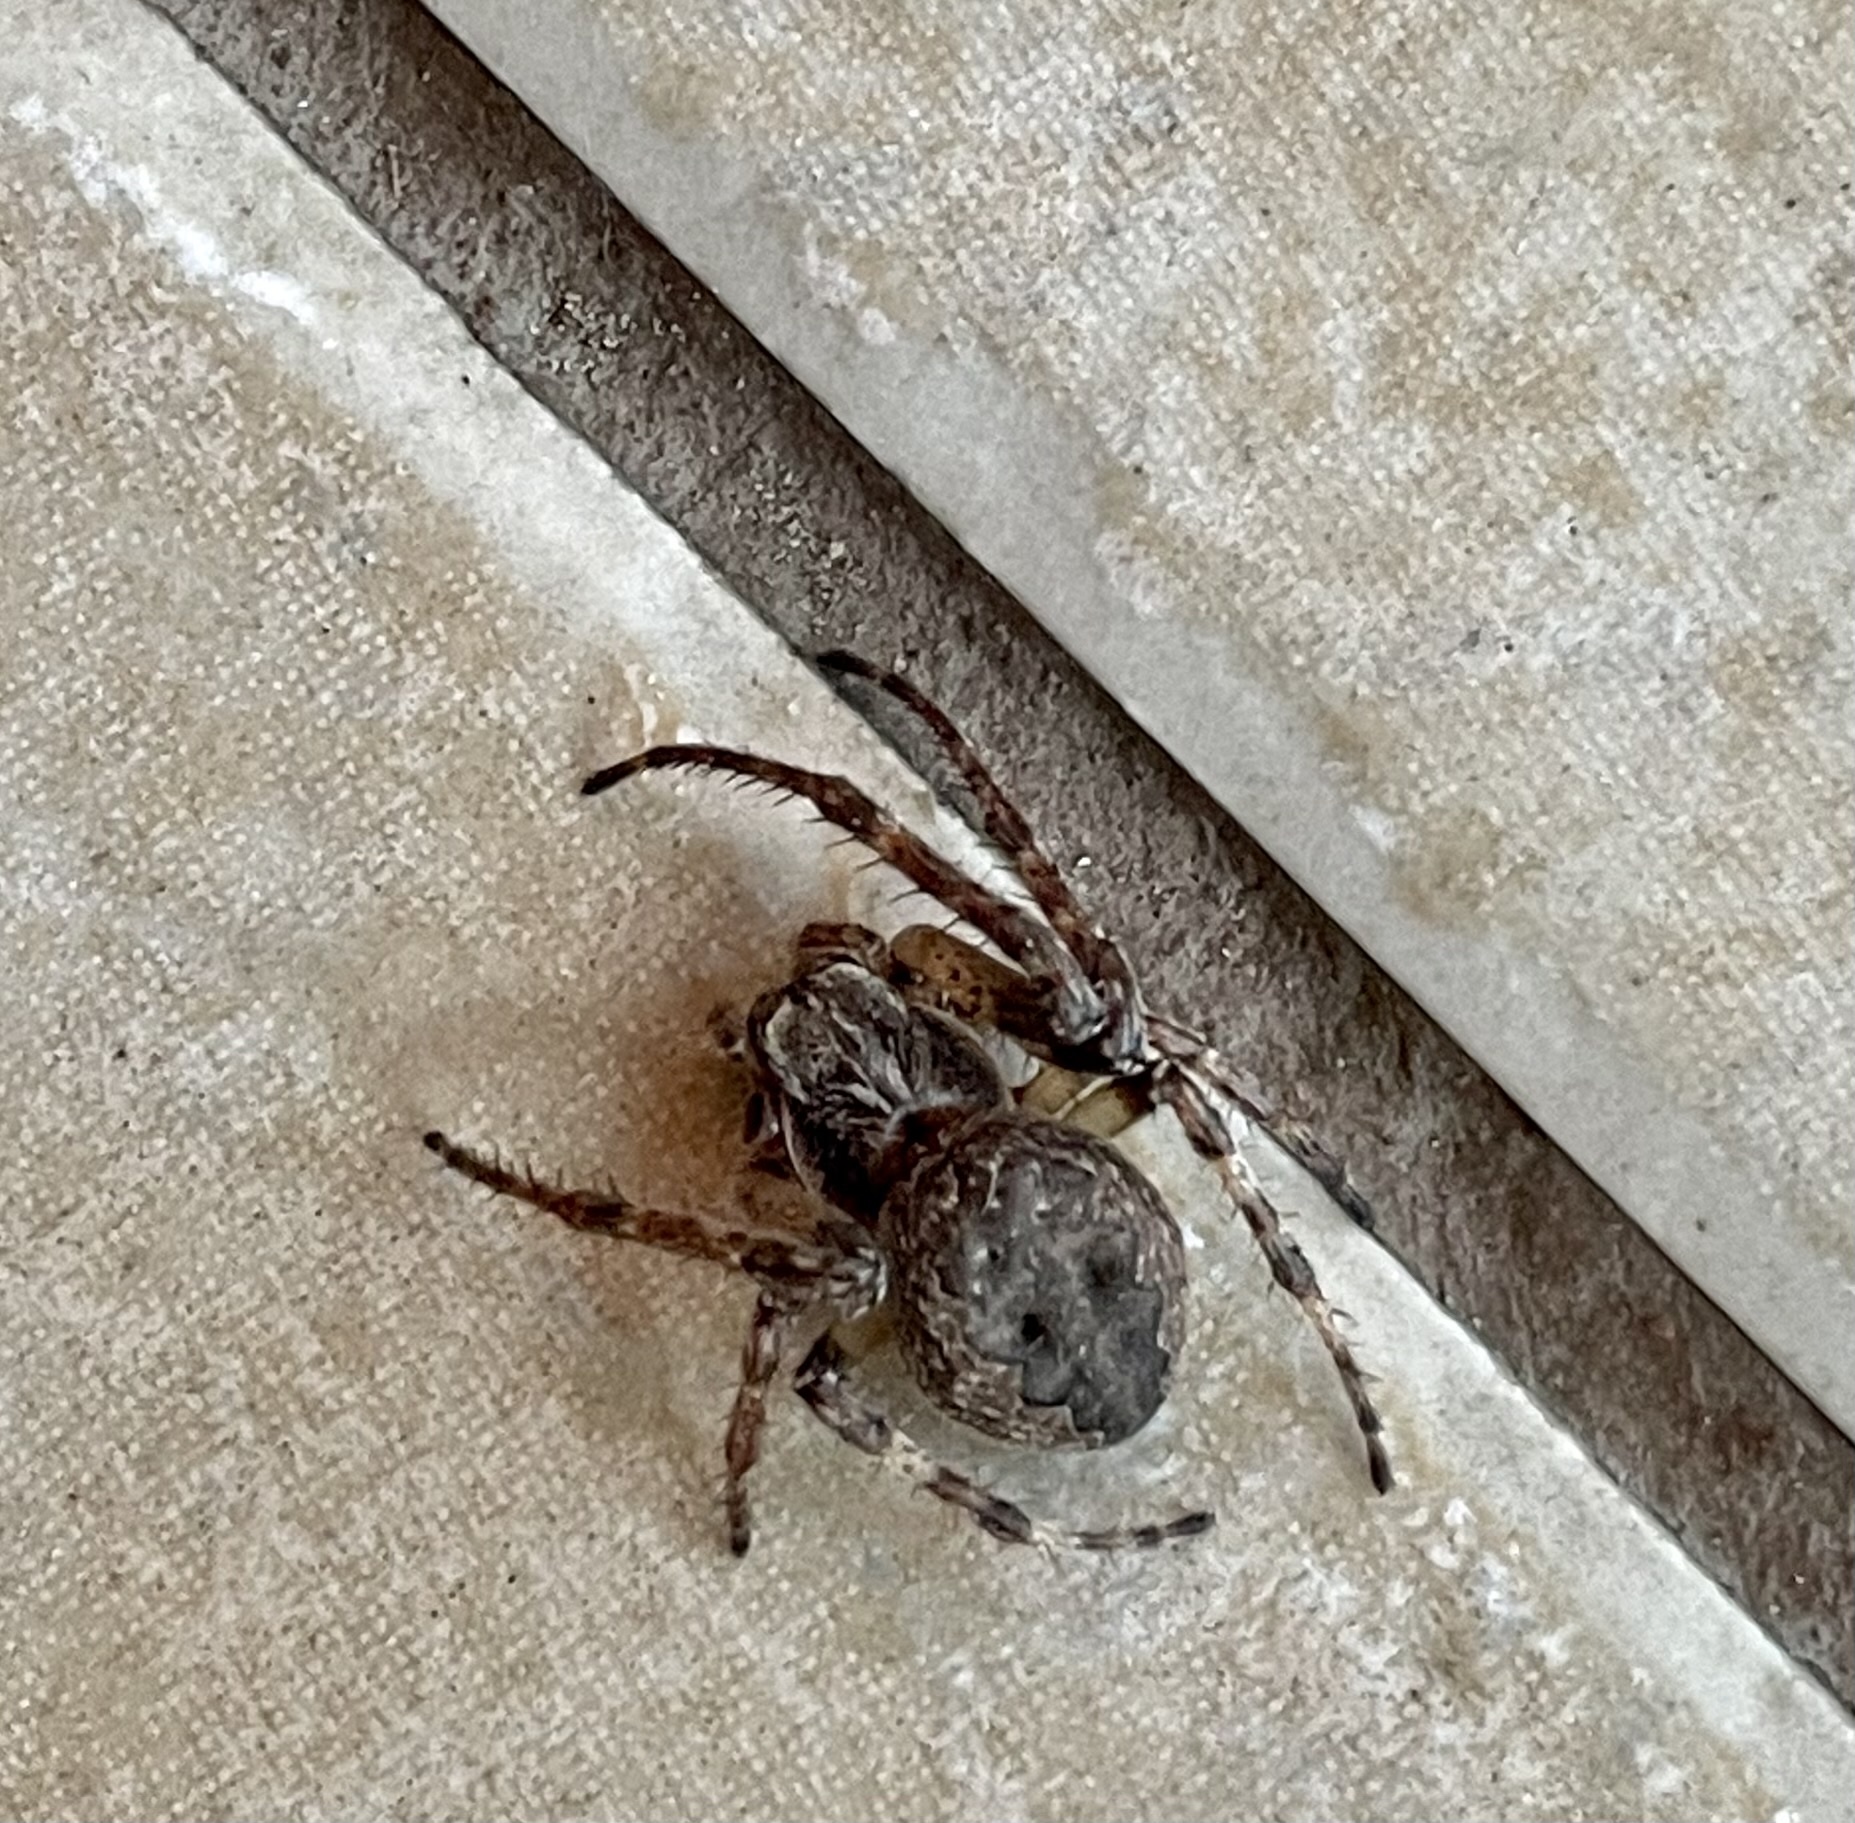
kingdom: Animalia
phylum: Arthropoda
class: Arachnida
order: Araneae
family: Araneidae
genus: Larinioides
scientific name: Larinioides ixobolus
